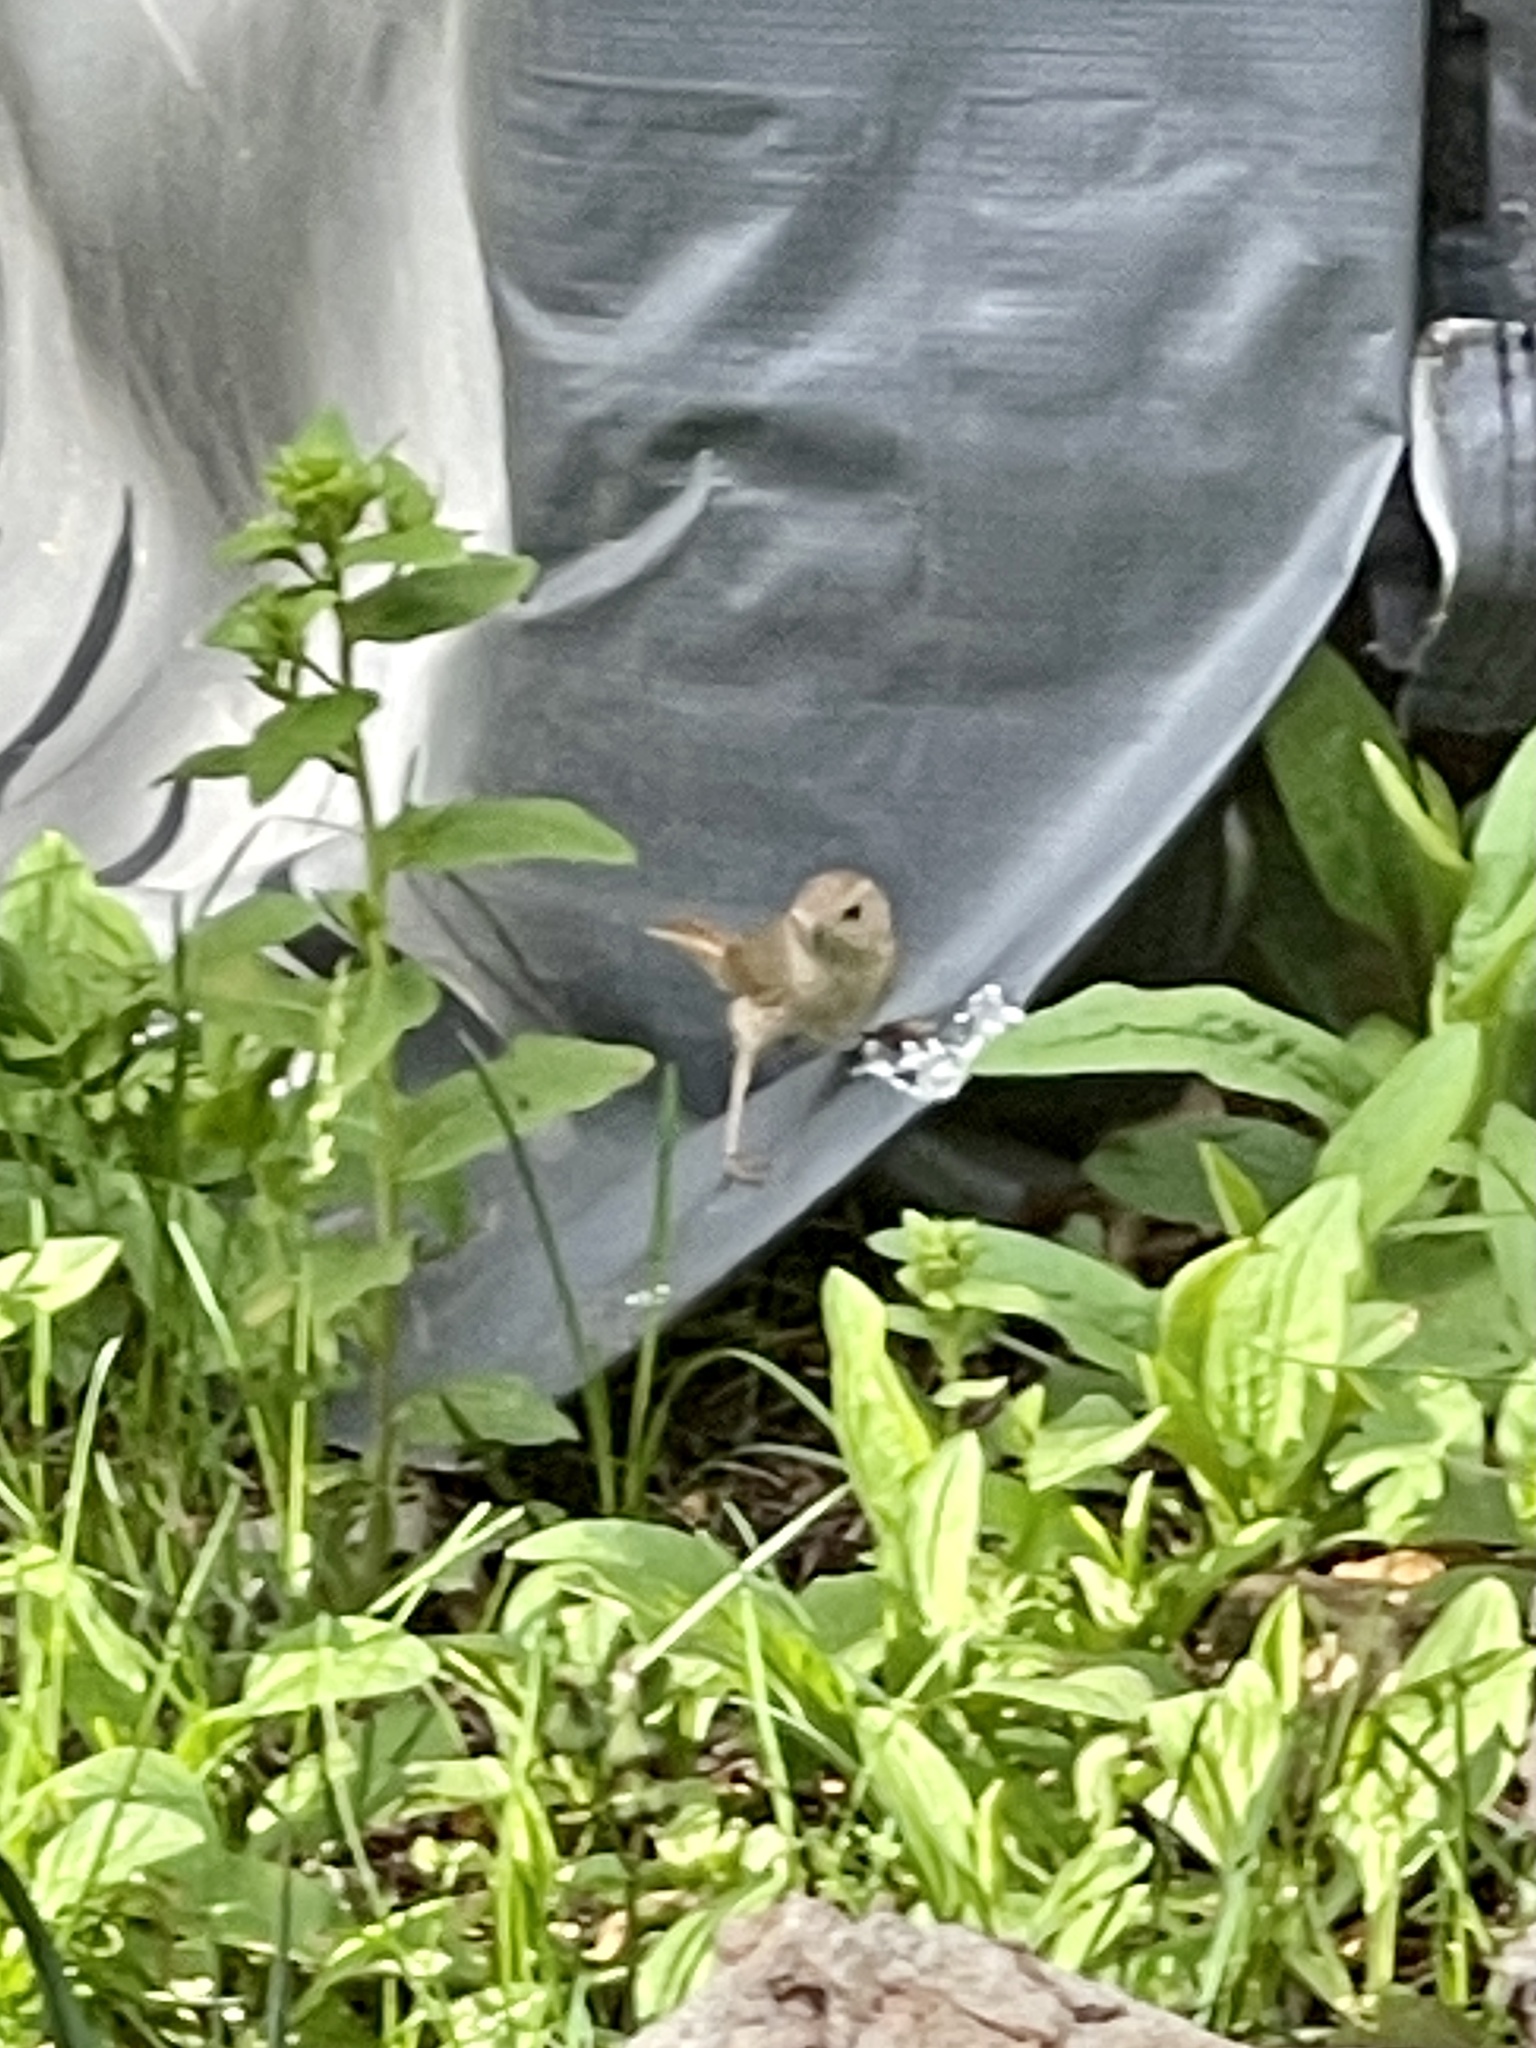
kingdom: Animalia
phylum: Chordata
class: Aves
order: Passeriformes
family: Troglodytidae
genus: Troglodytes
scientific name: Troglodytes aedon
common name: House wren
